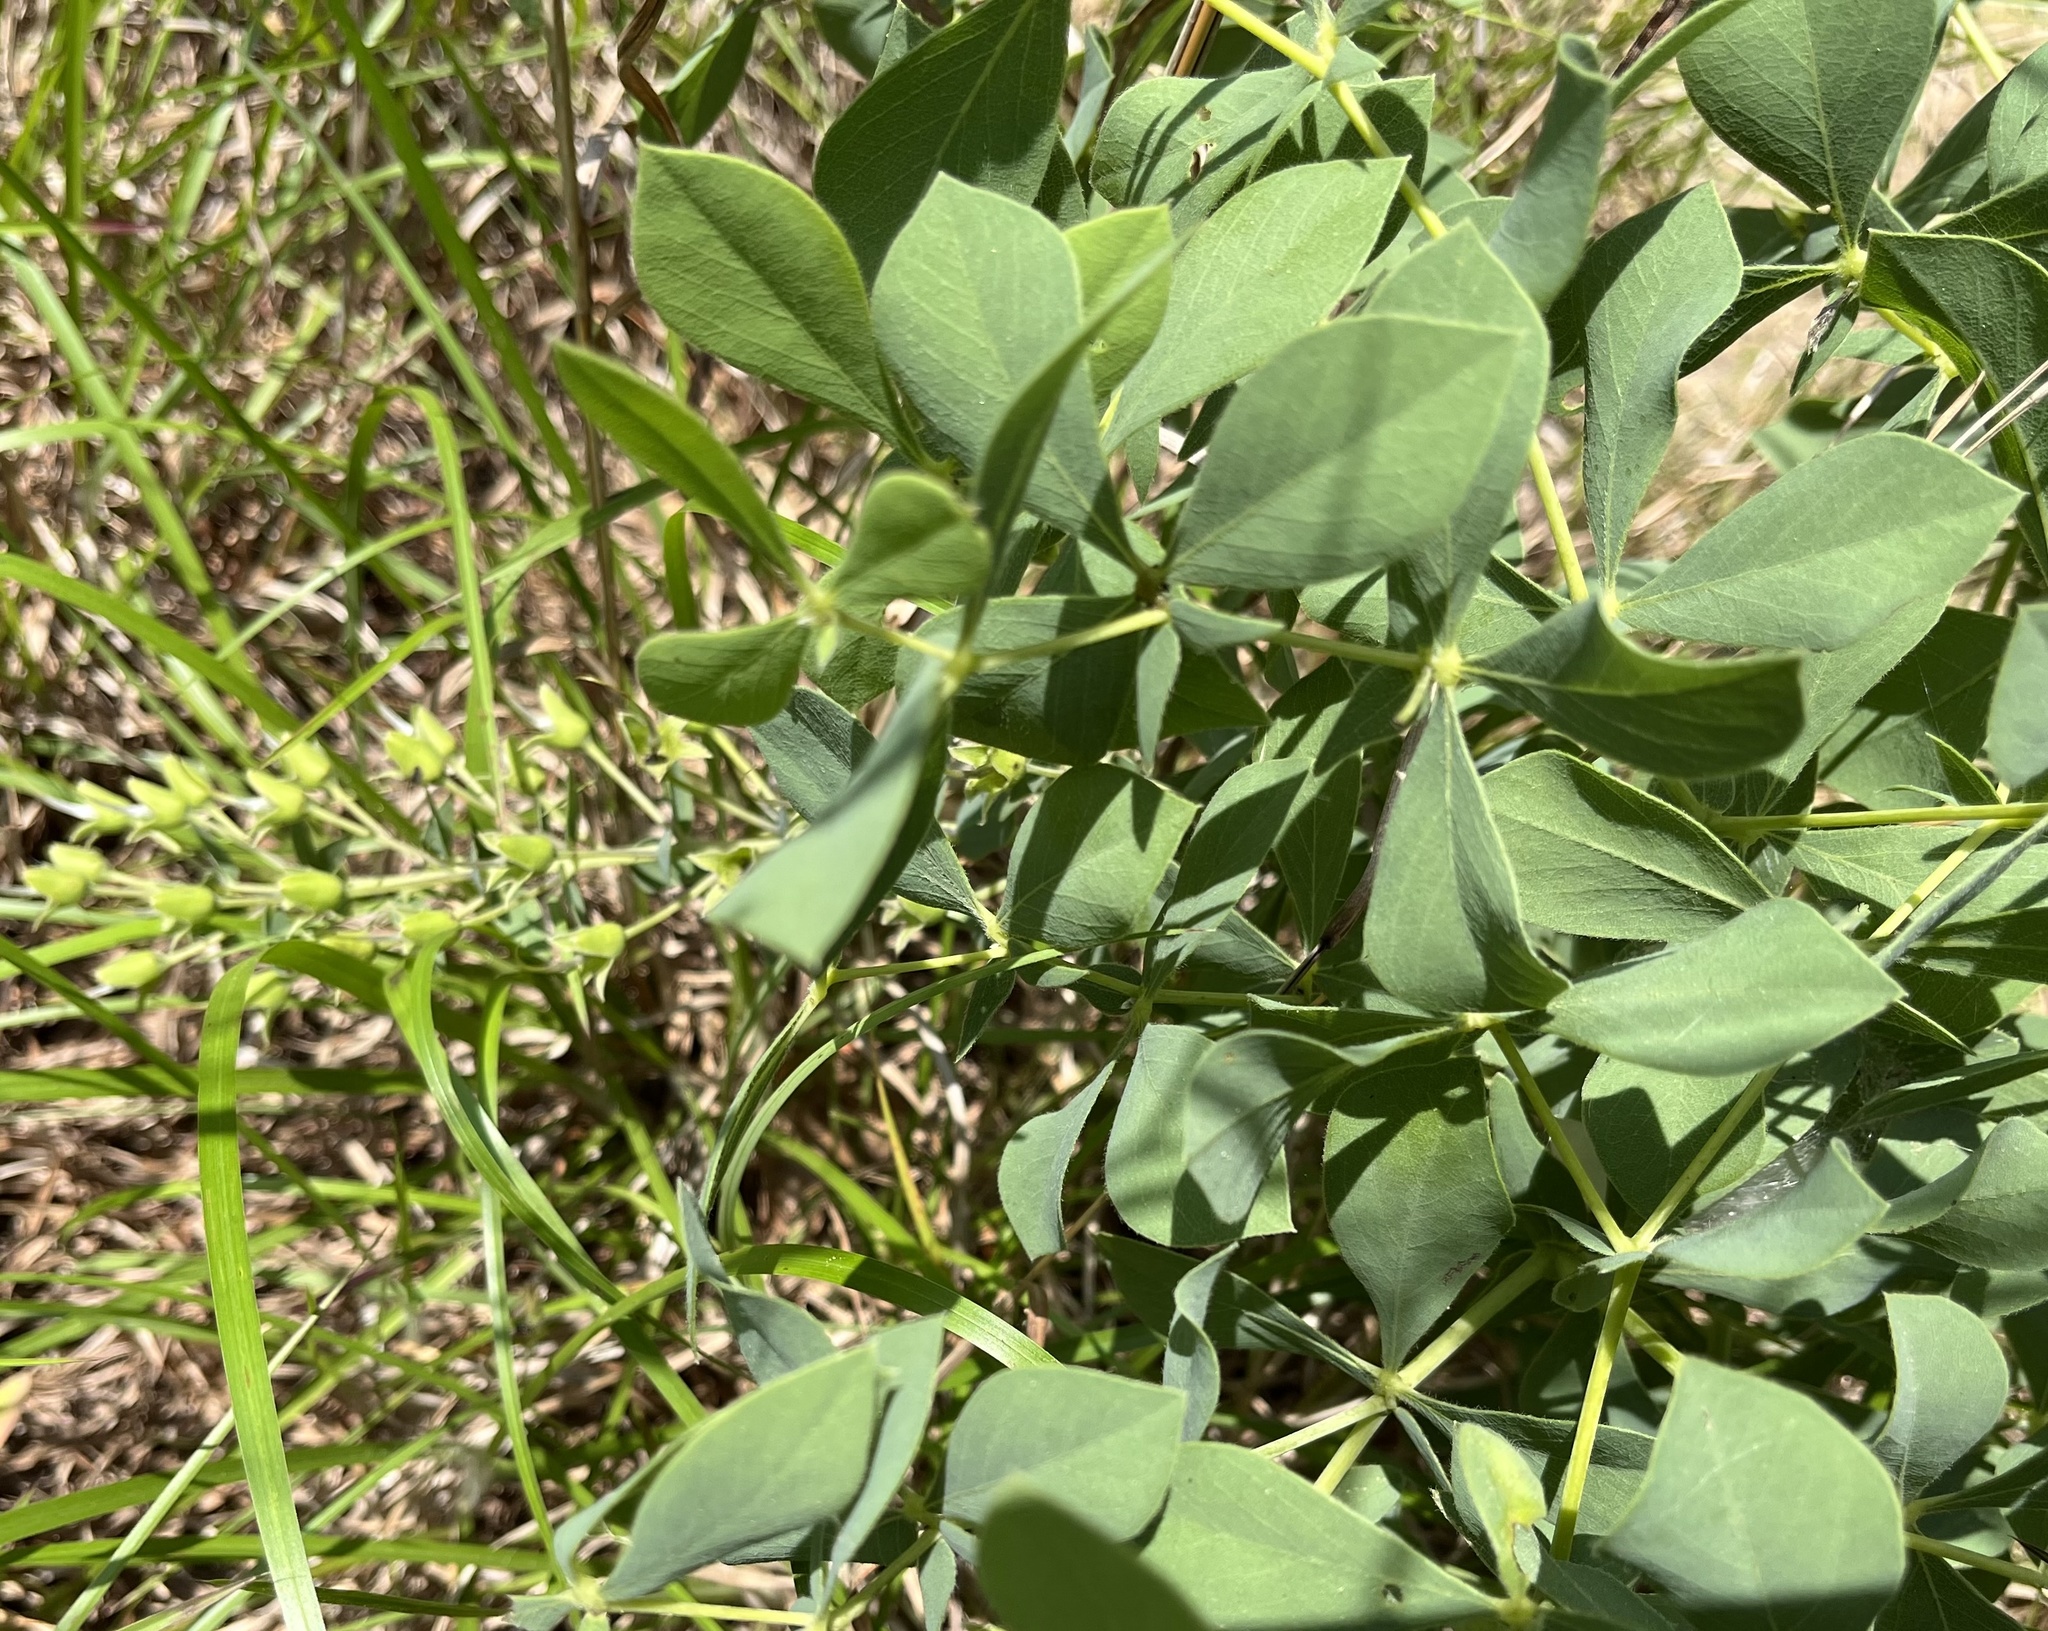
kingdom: Plantae
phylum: Tracheophyta
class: Magnoliopsida
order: Fabales
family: Fabaceae
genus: Baptisia
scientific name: Baptisia bracteata
